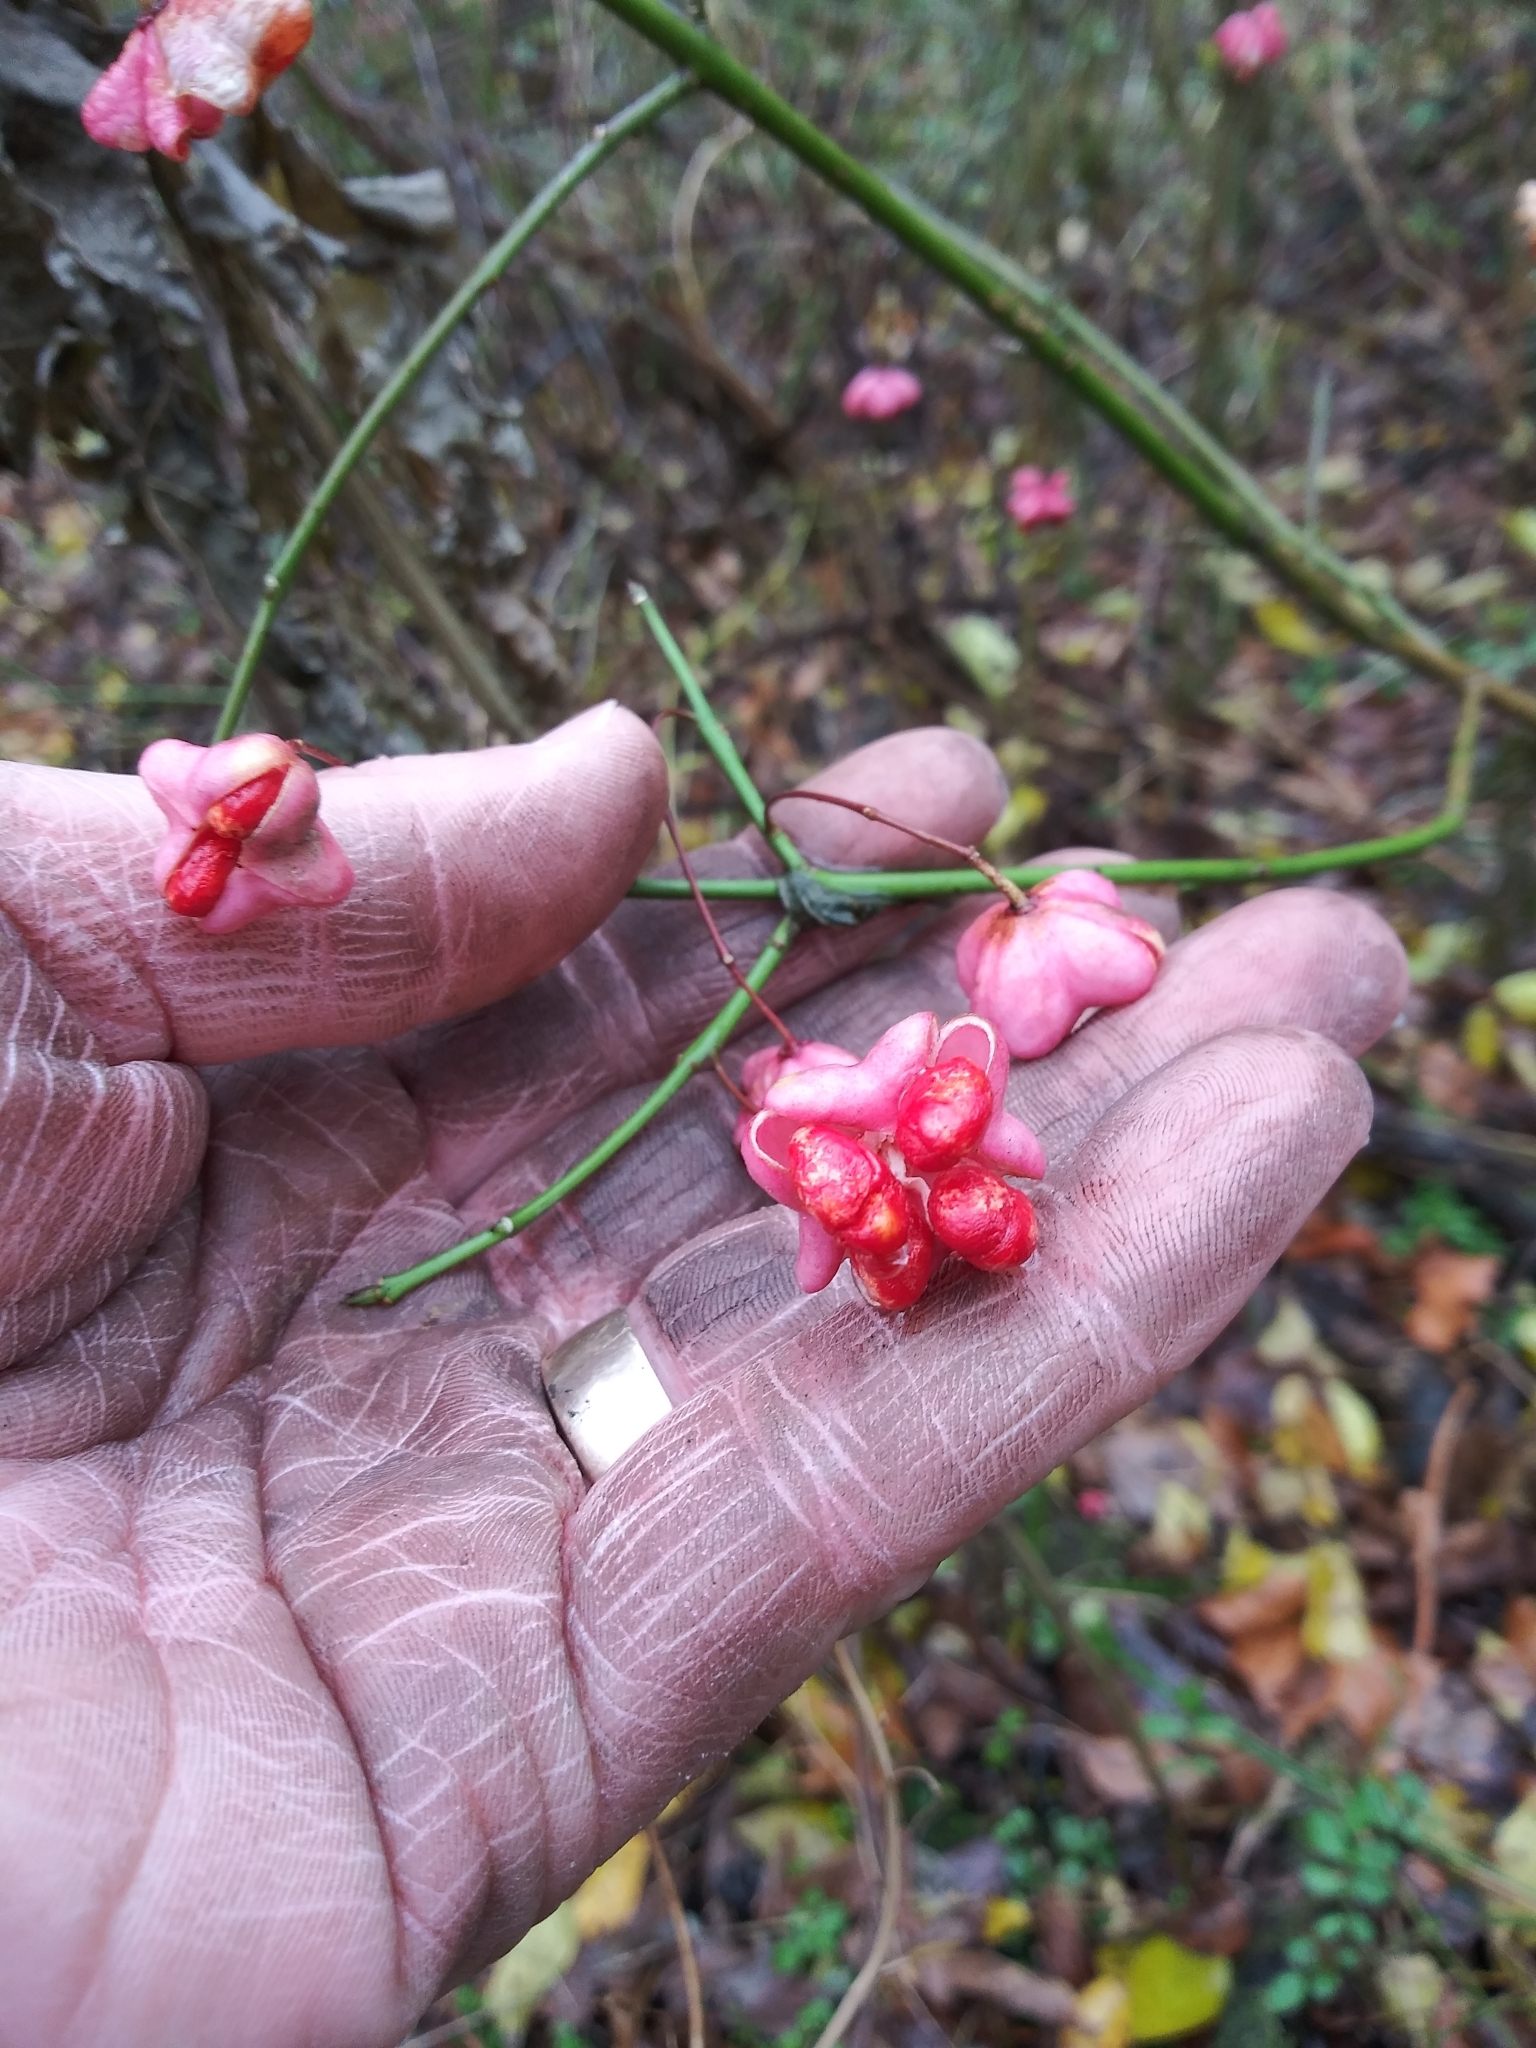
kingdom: Plantae
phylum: Tracheophyta
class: Magnoliopsida
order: Celastrales
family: Celastraceae
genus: Euonymus
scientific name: Euonymus europaeus
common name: Spindle
